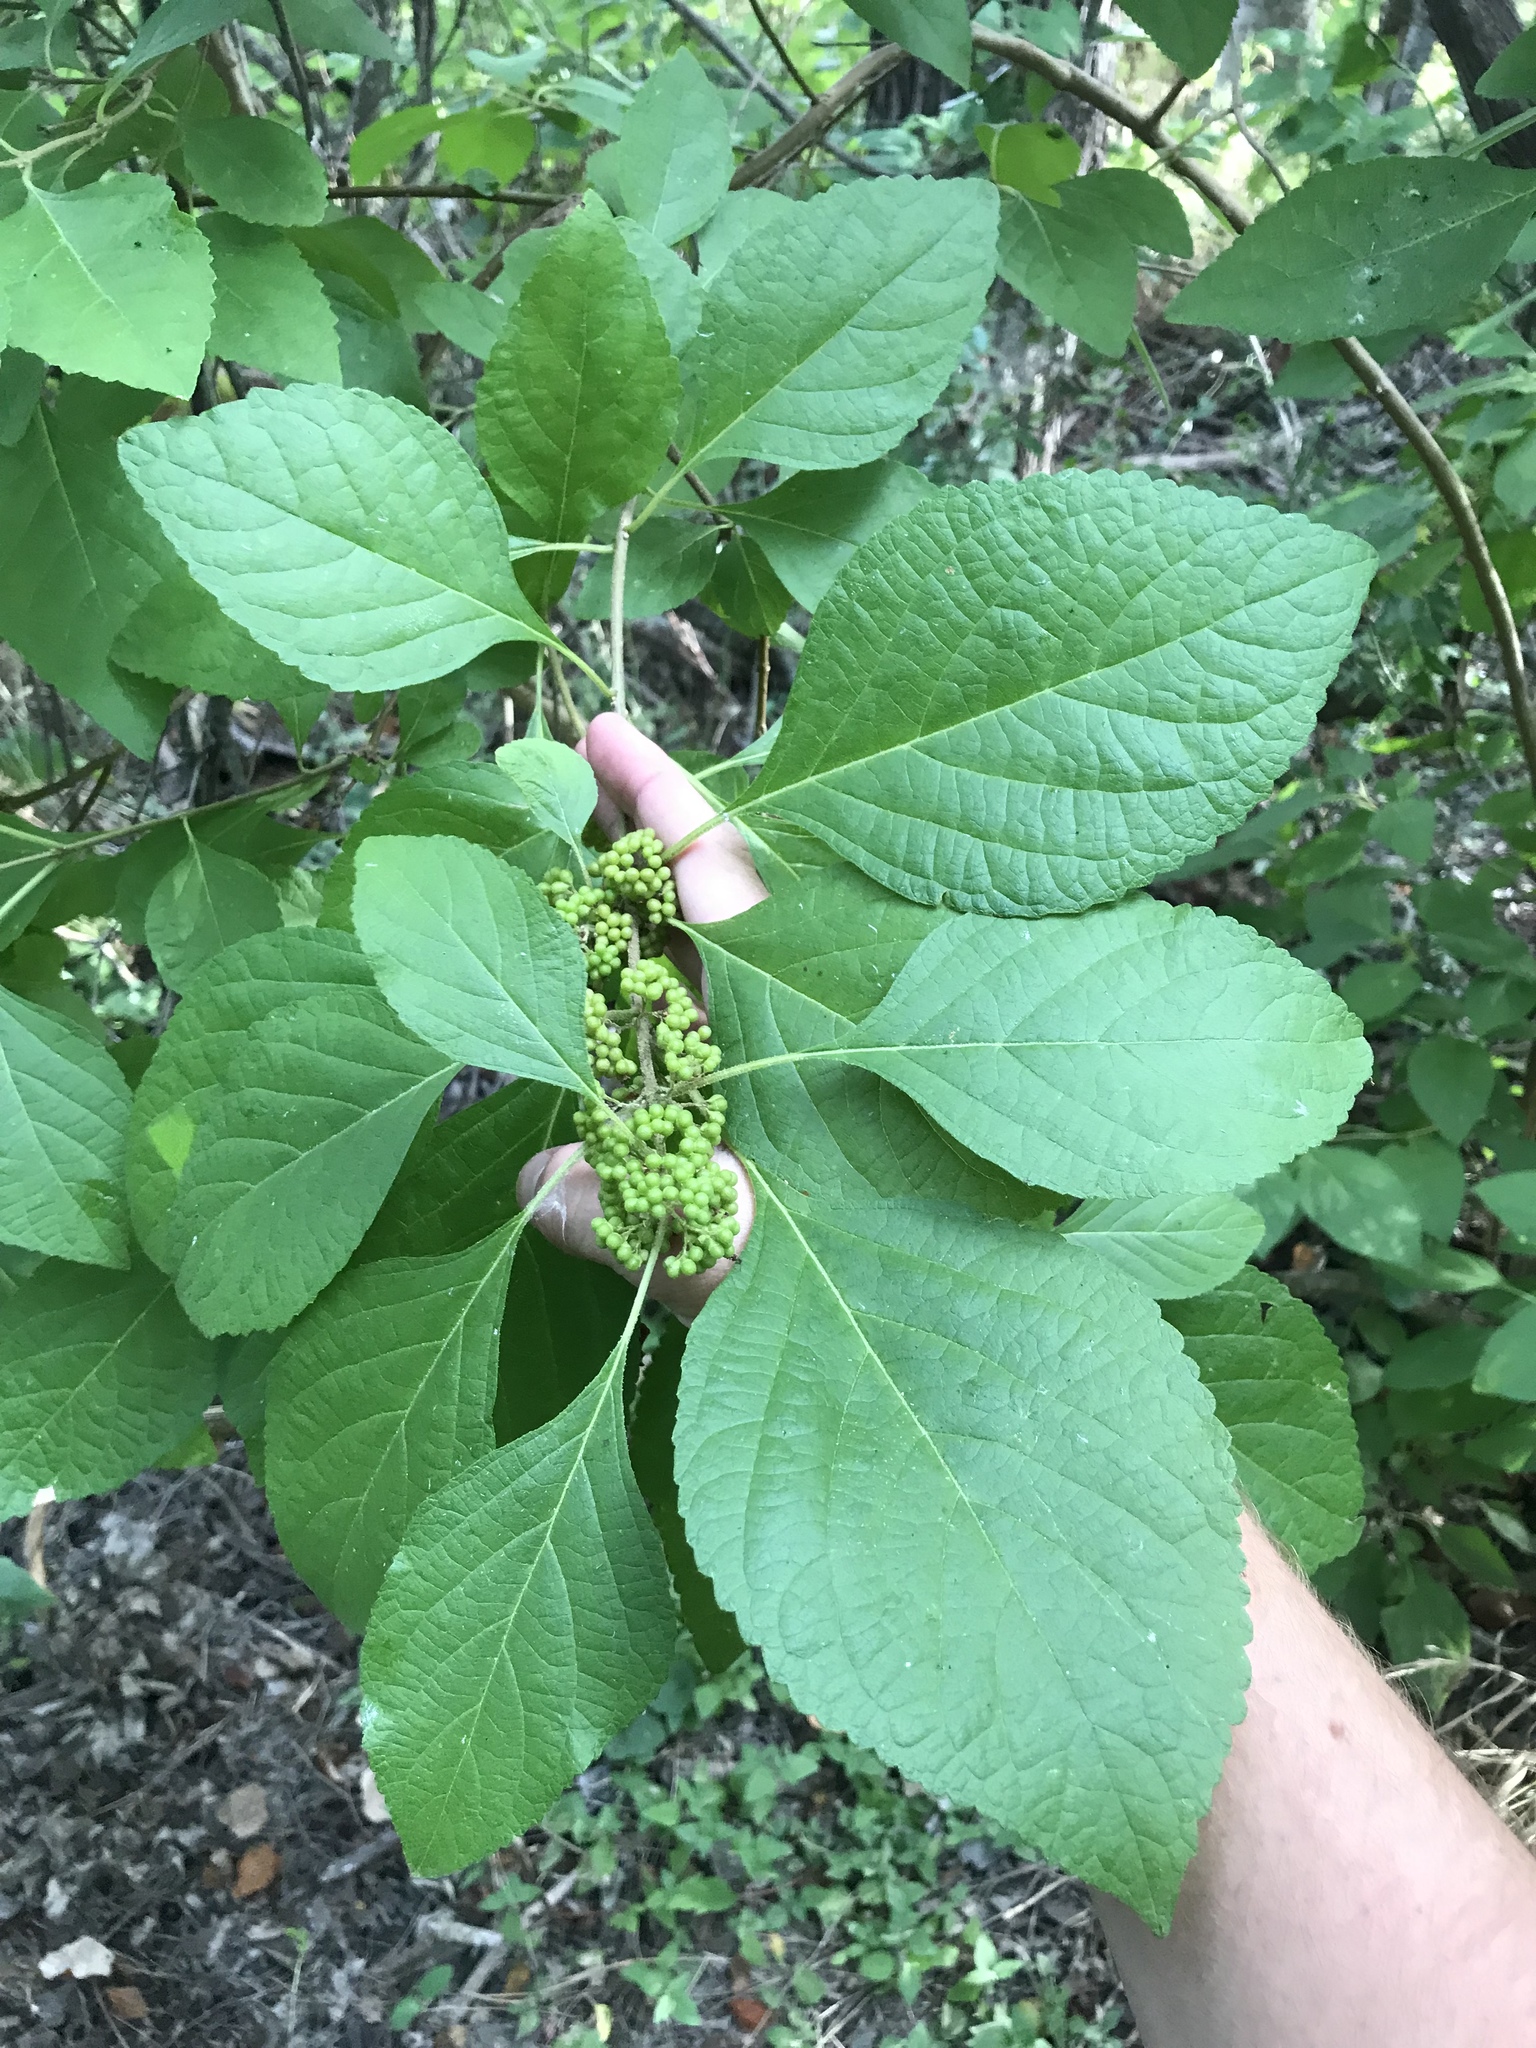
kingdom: Plantae
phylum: Tracheophyta
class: Magnoliopsida
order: Lamiales
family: Lamiaceae
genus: Callicarpa
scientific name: Callicarpa americana
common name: American beautyberry
